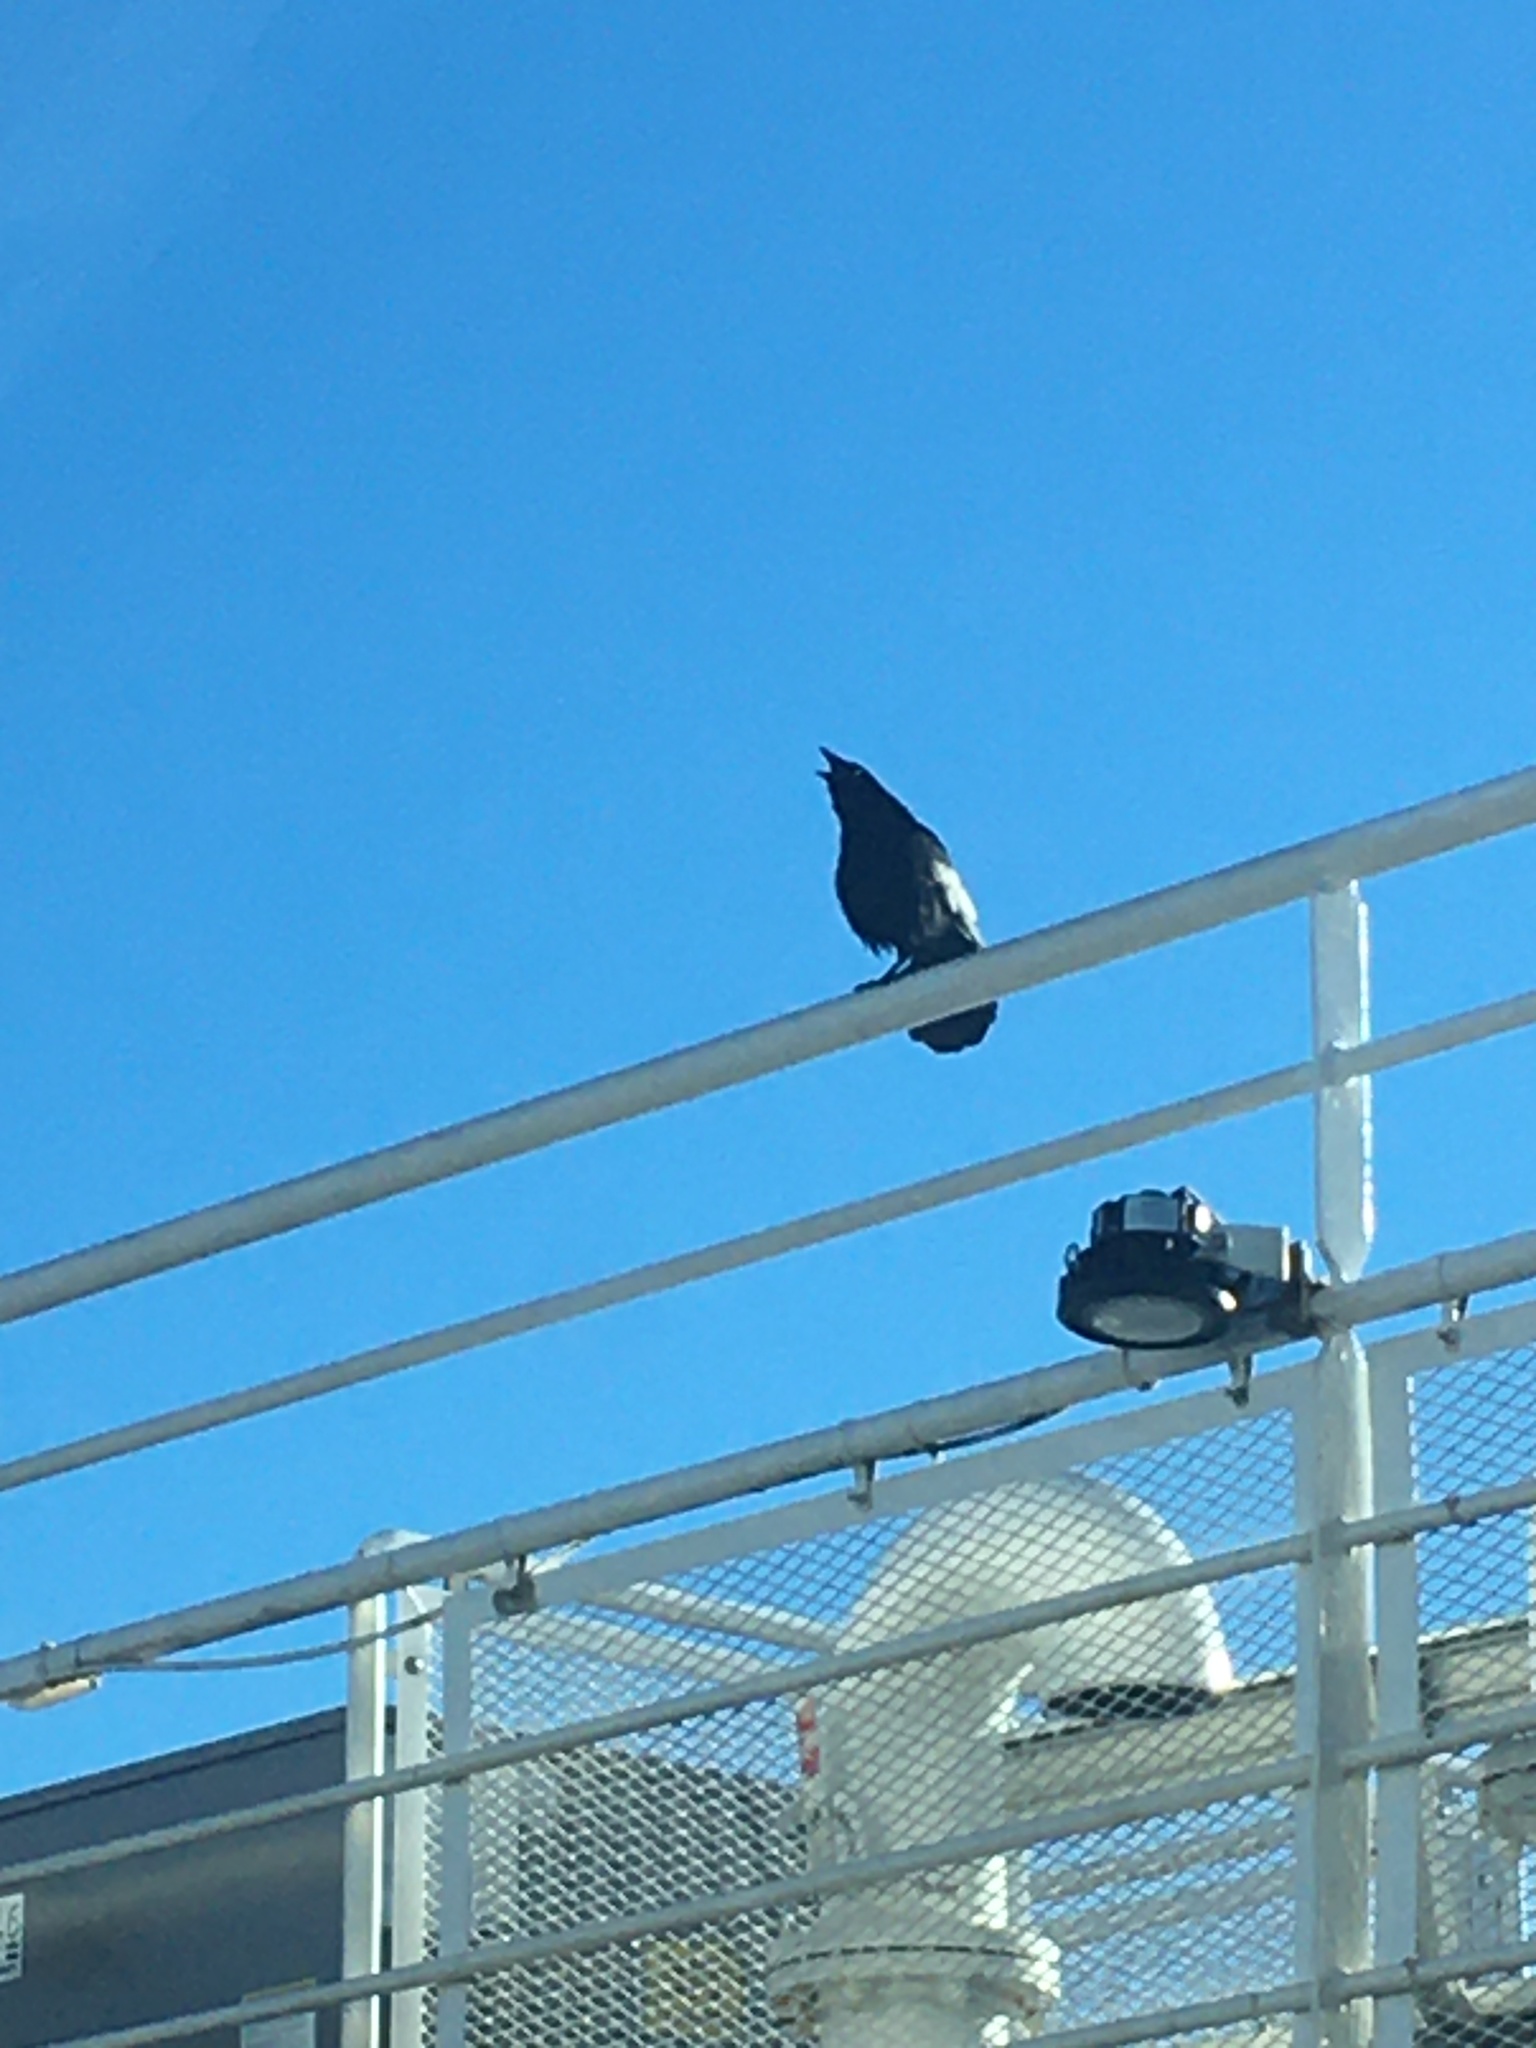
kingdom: Animalia
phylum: Chordata
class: Aves
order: Passeriformes
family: Corvidae
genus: Corvus
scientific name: Corvus brachyrhynchos
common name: American crow
